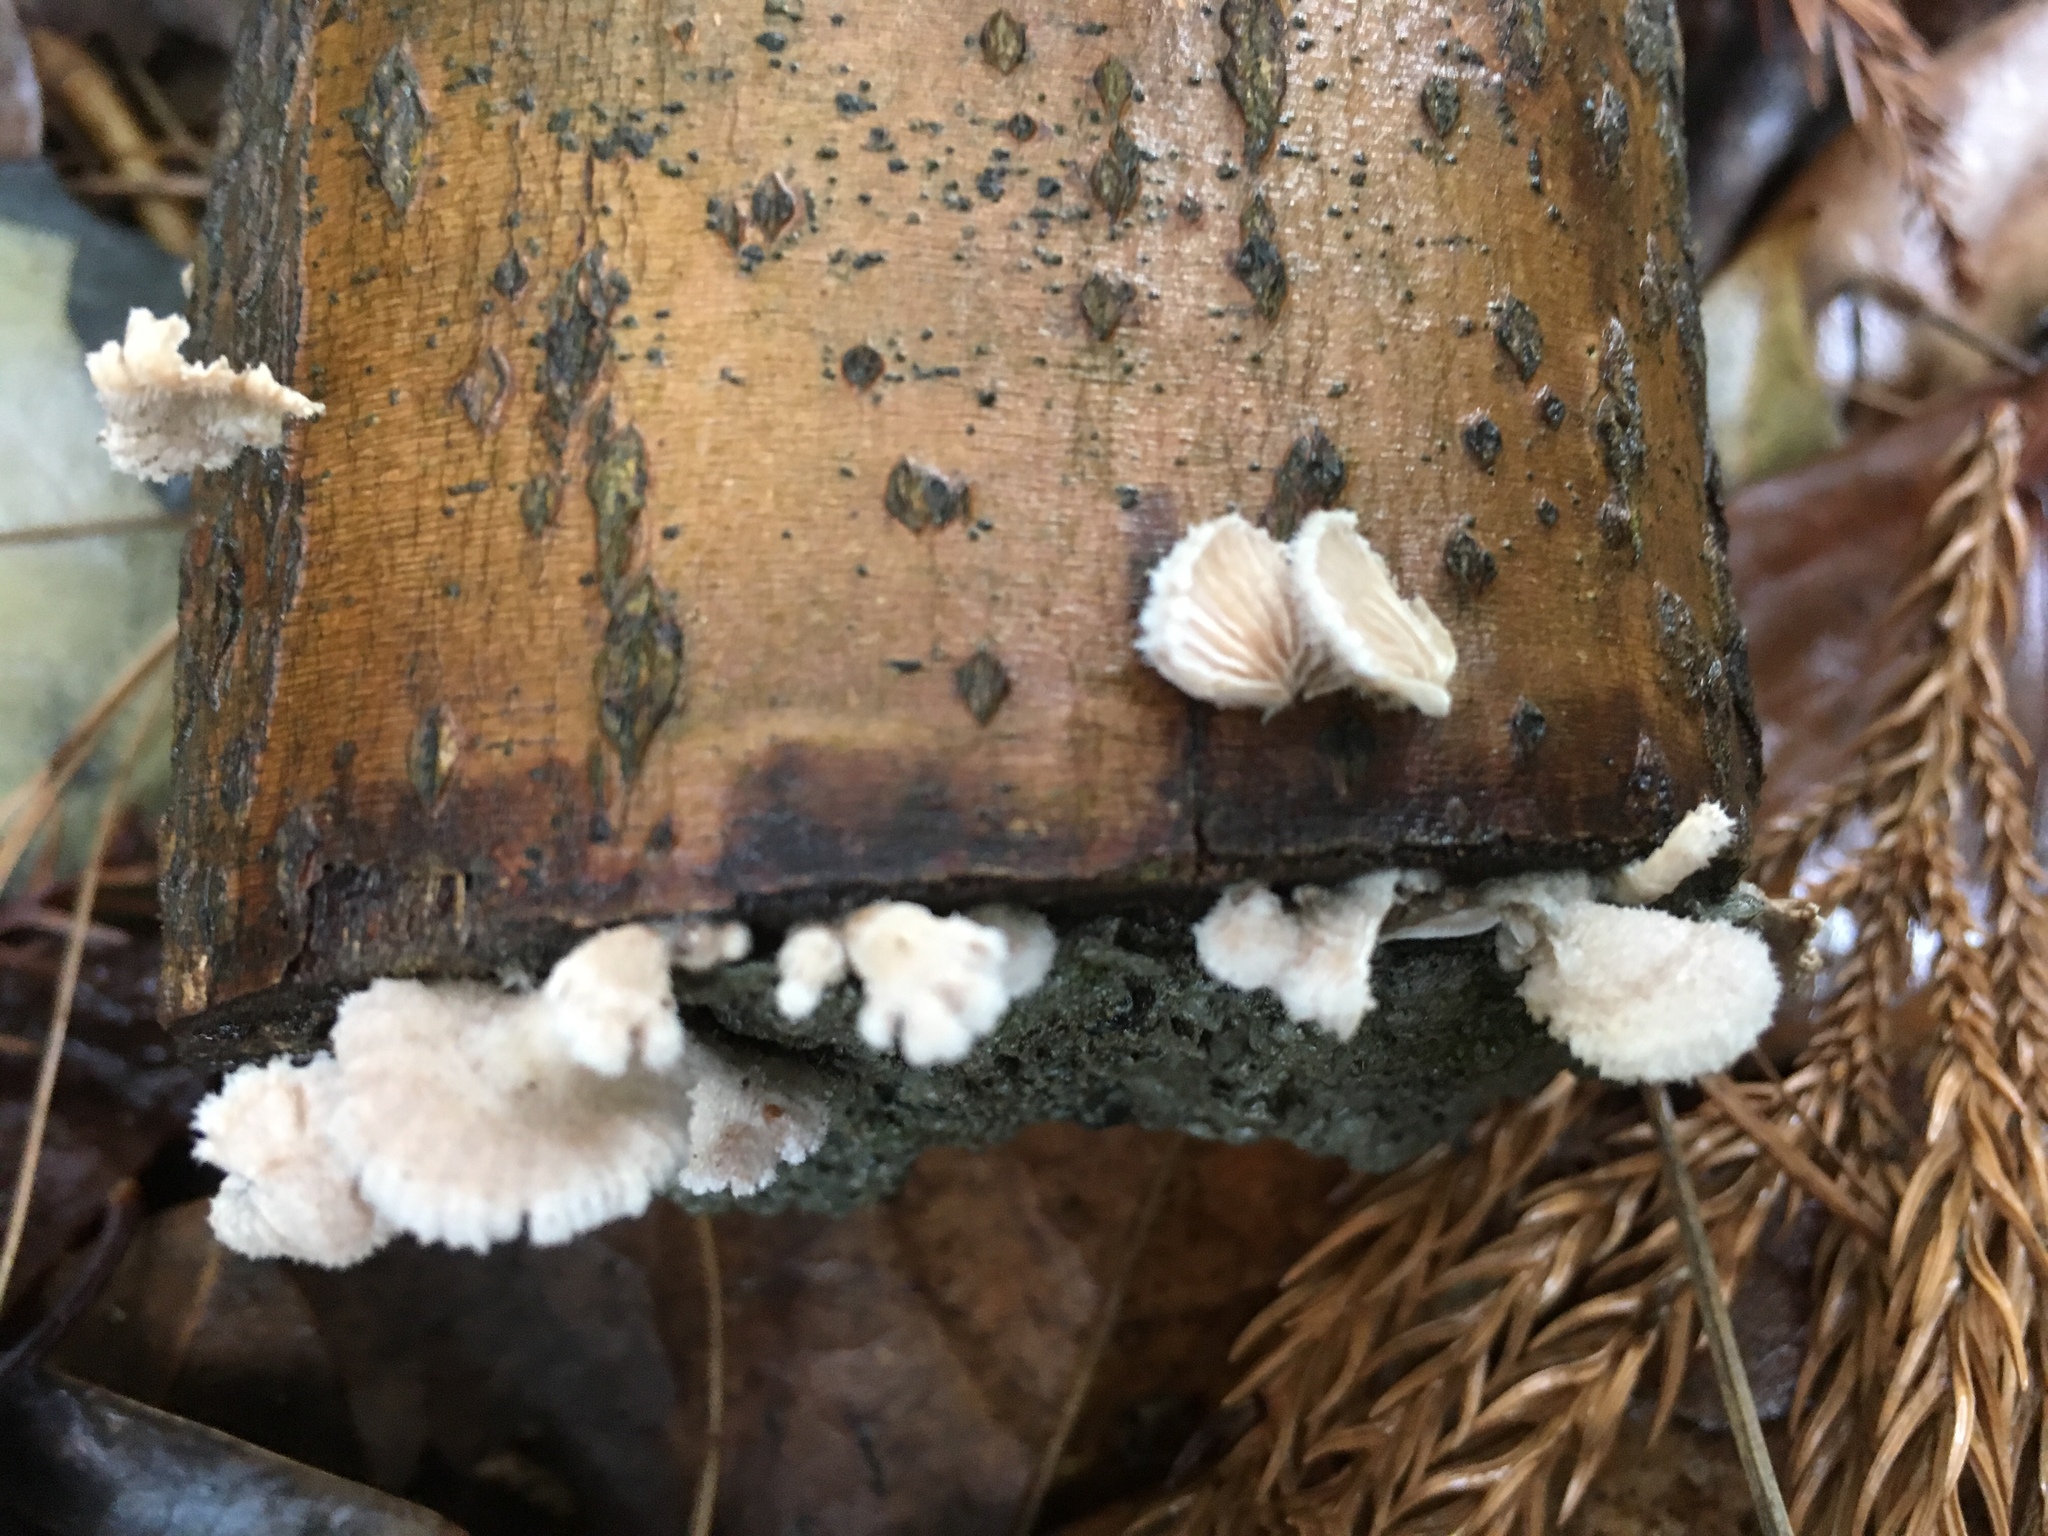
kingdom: Fungi
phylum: Basidiomycota
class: Agaricomycetes
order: Agaricales
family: Schizophyllaceae
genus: Schizophyllum
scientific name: Schizophyllum commune
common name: Common porecrust
